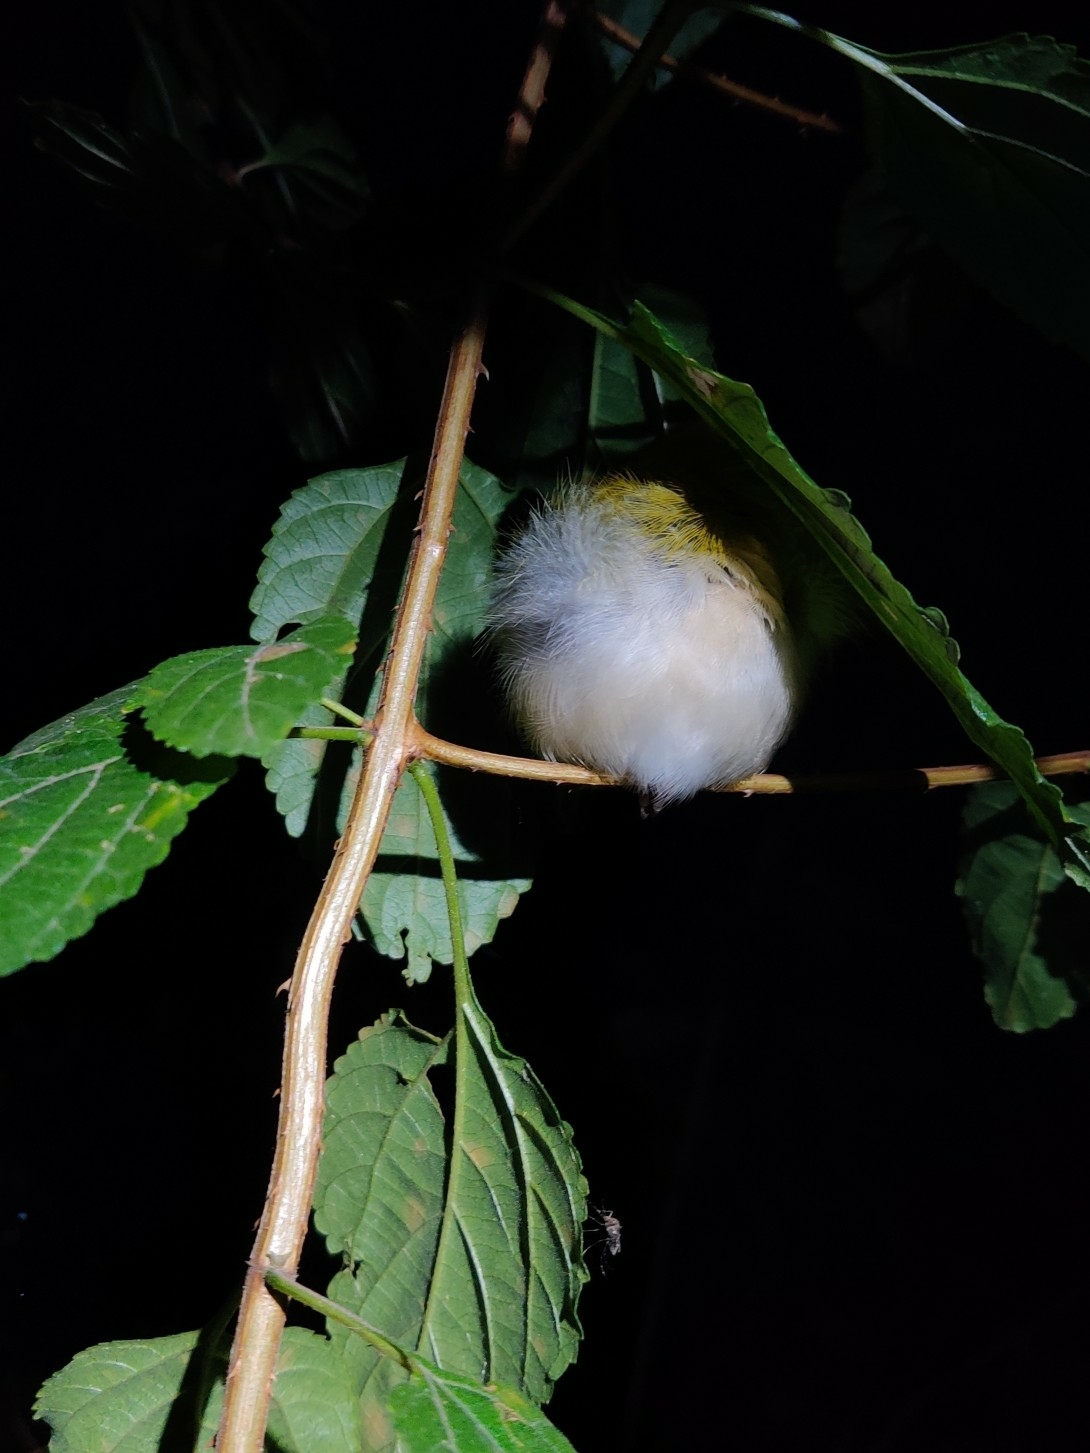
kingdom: Animalia
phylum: Chordata
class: Aves
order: Passeriformes
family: Cisticolidae
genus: Orthotomus
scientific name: Orthotomus sutorius
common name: Common tailorbird
